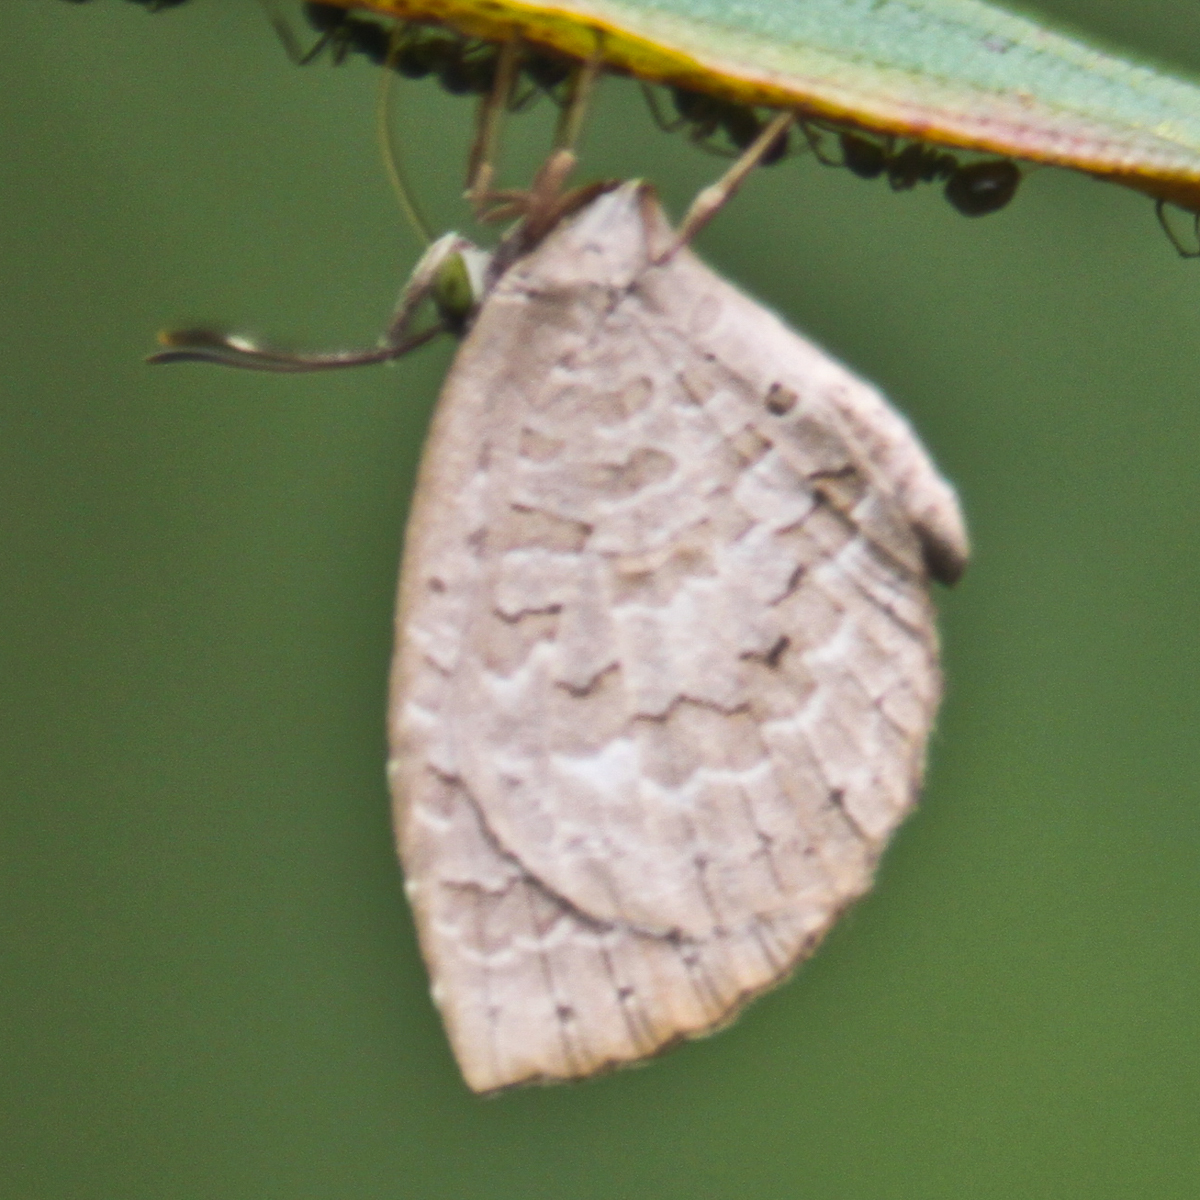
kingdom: Animalia
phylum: Arthropoda
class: Insecta
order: Lepidoptera
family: Lycaenidae
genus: Miletus
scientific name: Miletus chinensis
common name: Common brownie
